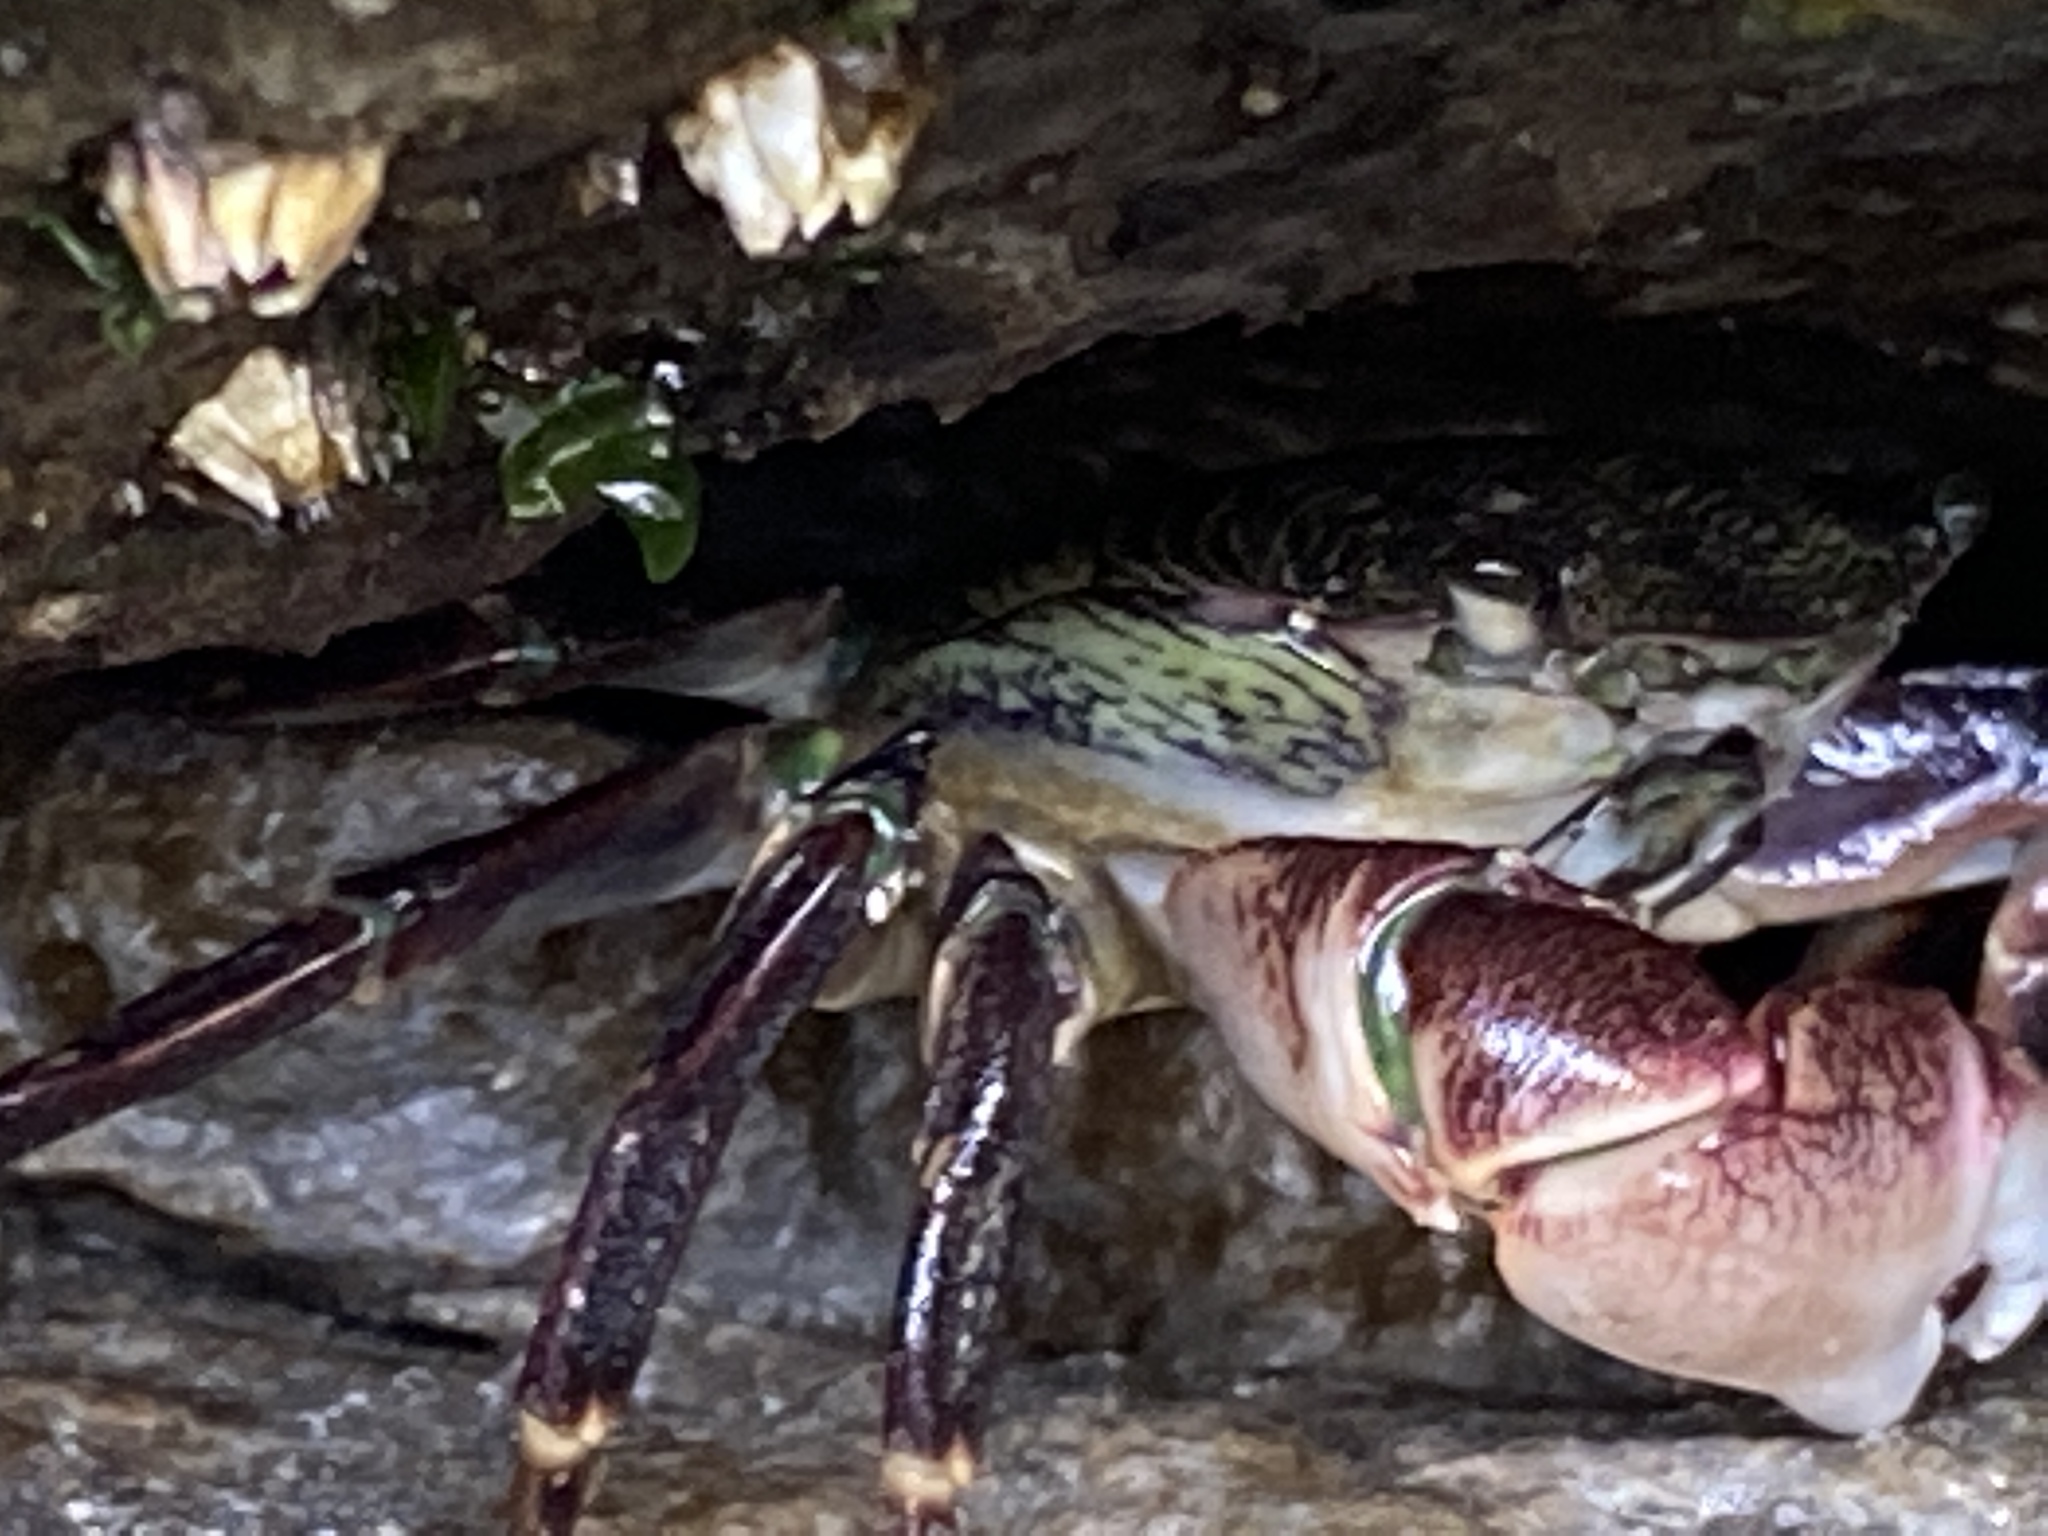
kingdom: Animalia
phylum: Arthropoda
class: Malacostraca
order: Decapoda
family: Grapsidae
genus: Pachygrapsus
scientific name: Pachygrapsus crassipes
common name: Striped shore crab
